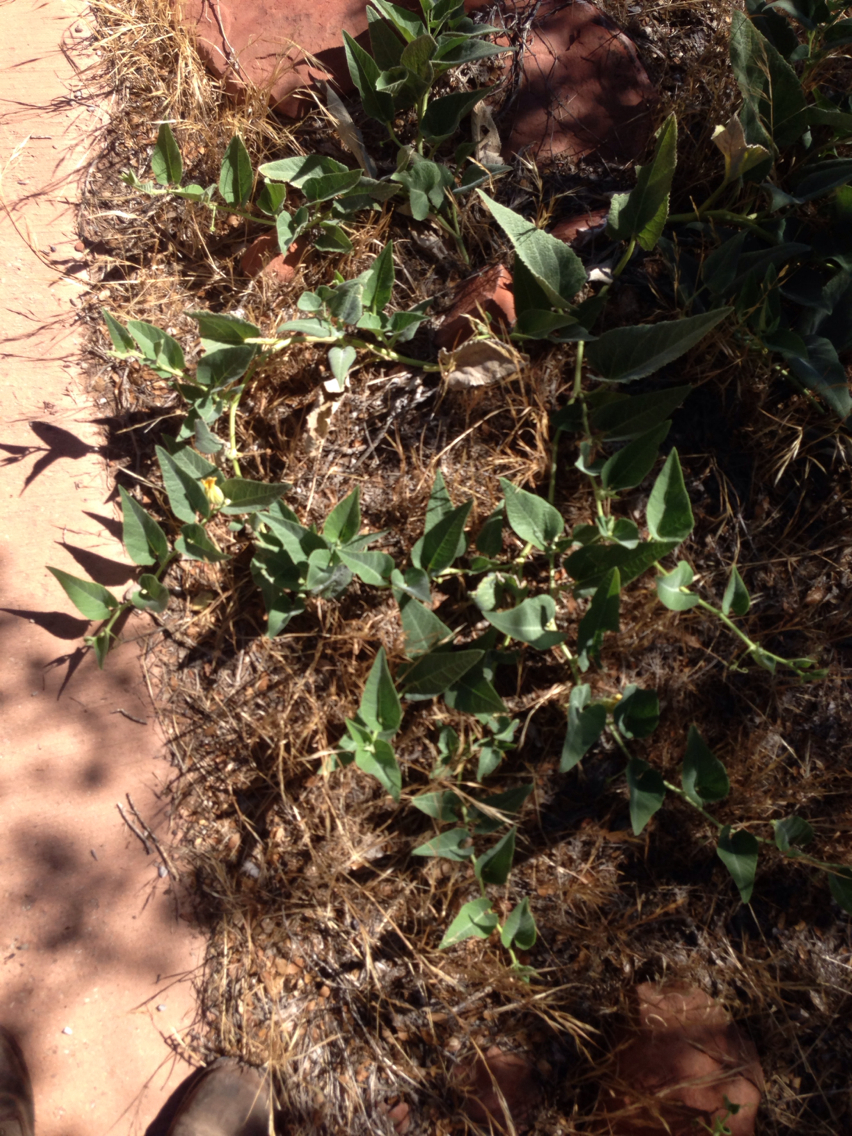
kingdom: Plantae
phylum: Tracheophyta
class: Magnoliopsida
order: Cucurbitales
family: Cucurbitaceae
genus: Cucurbita
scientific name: Cucurbita foetidissima
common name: Buffalo gourd
